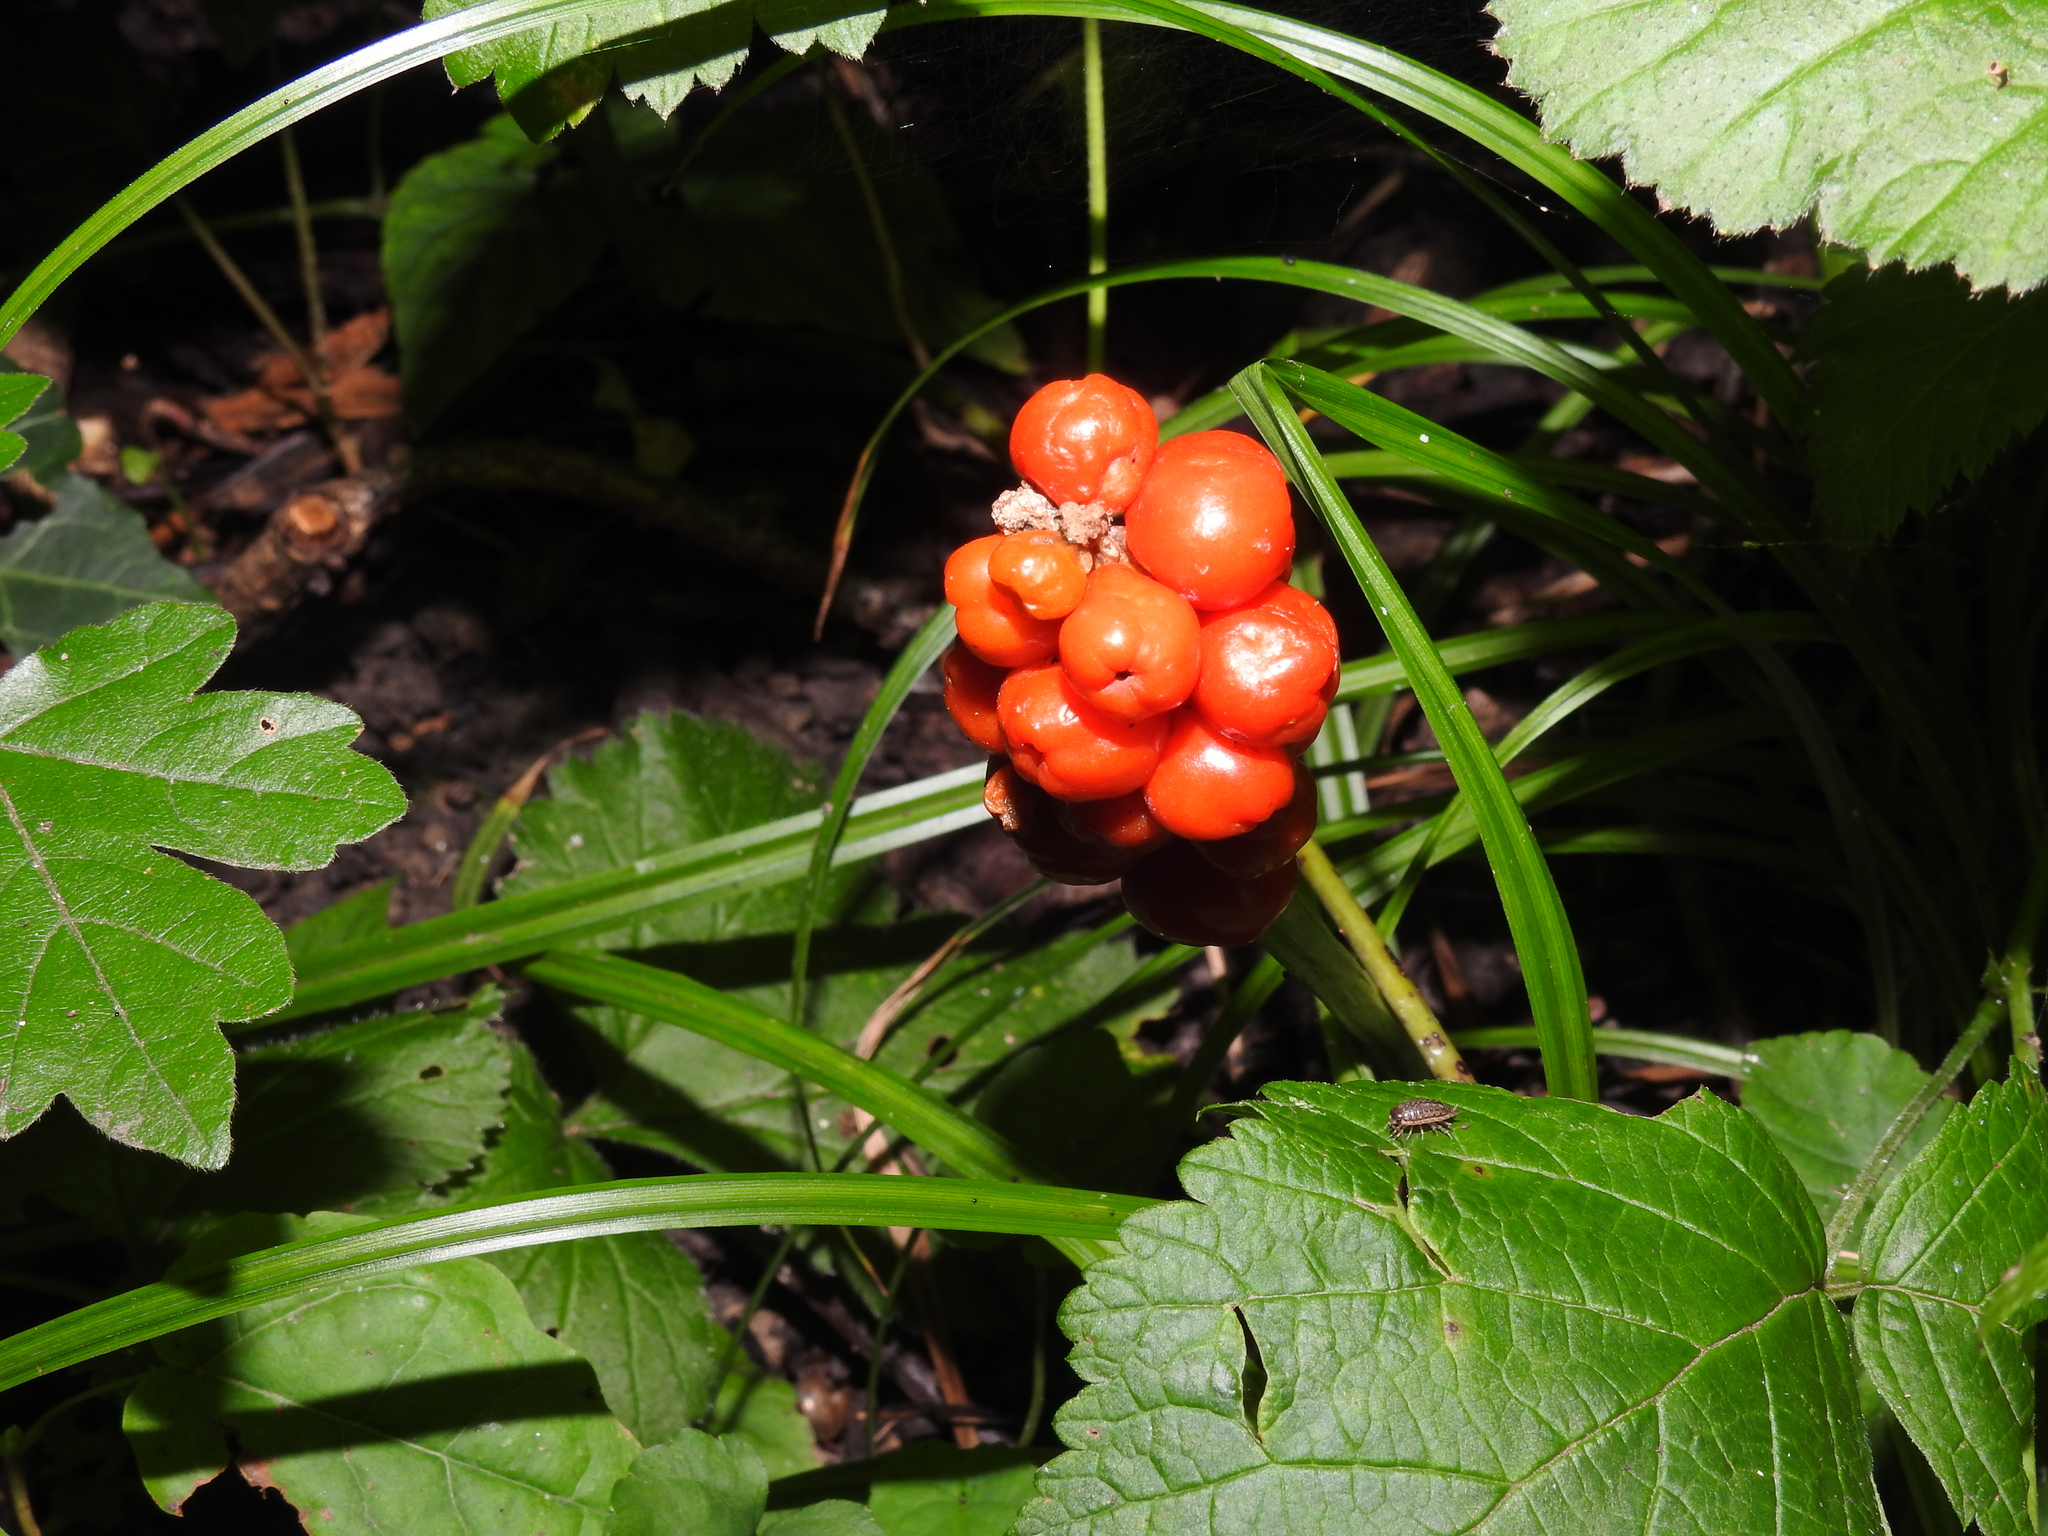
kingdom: Plantae
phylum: Tracheophyta
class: Liliopsida
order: Alismatales
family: Araceae
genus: Arum
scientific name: Arum maculatum
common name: Lords-and-ladies
